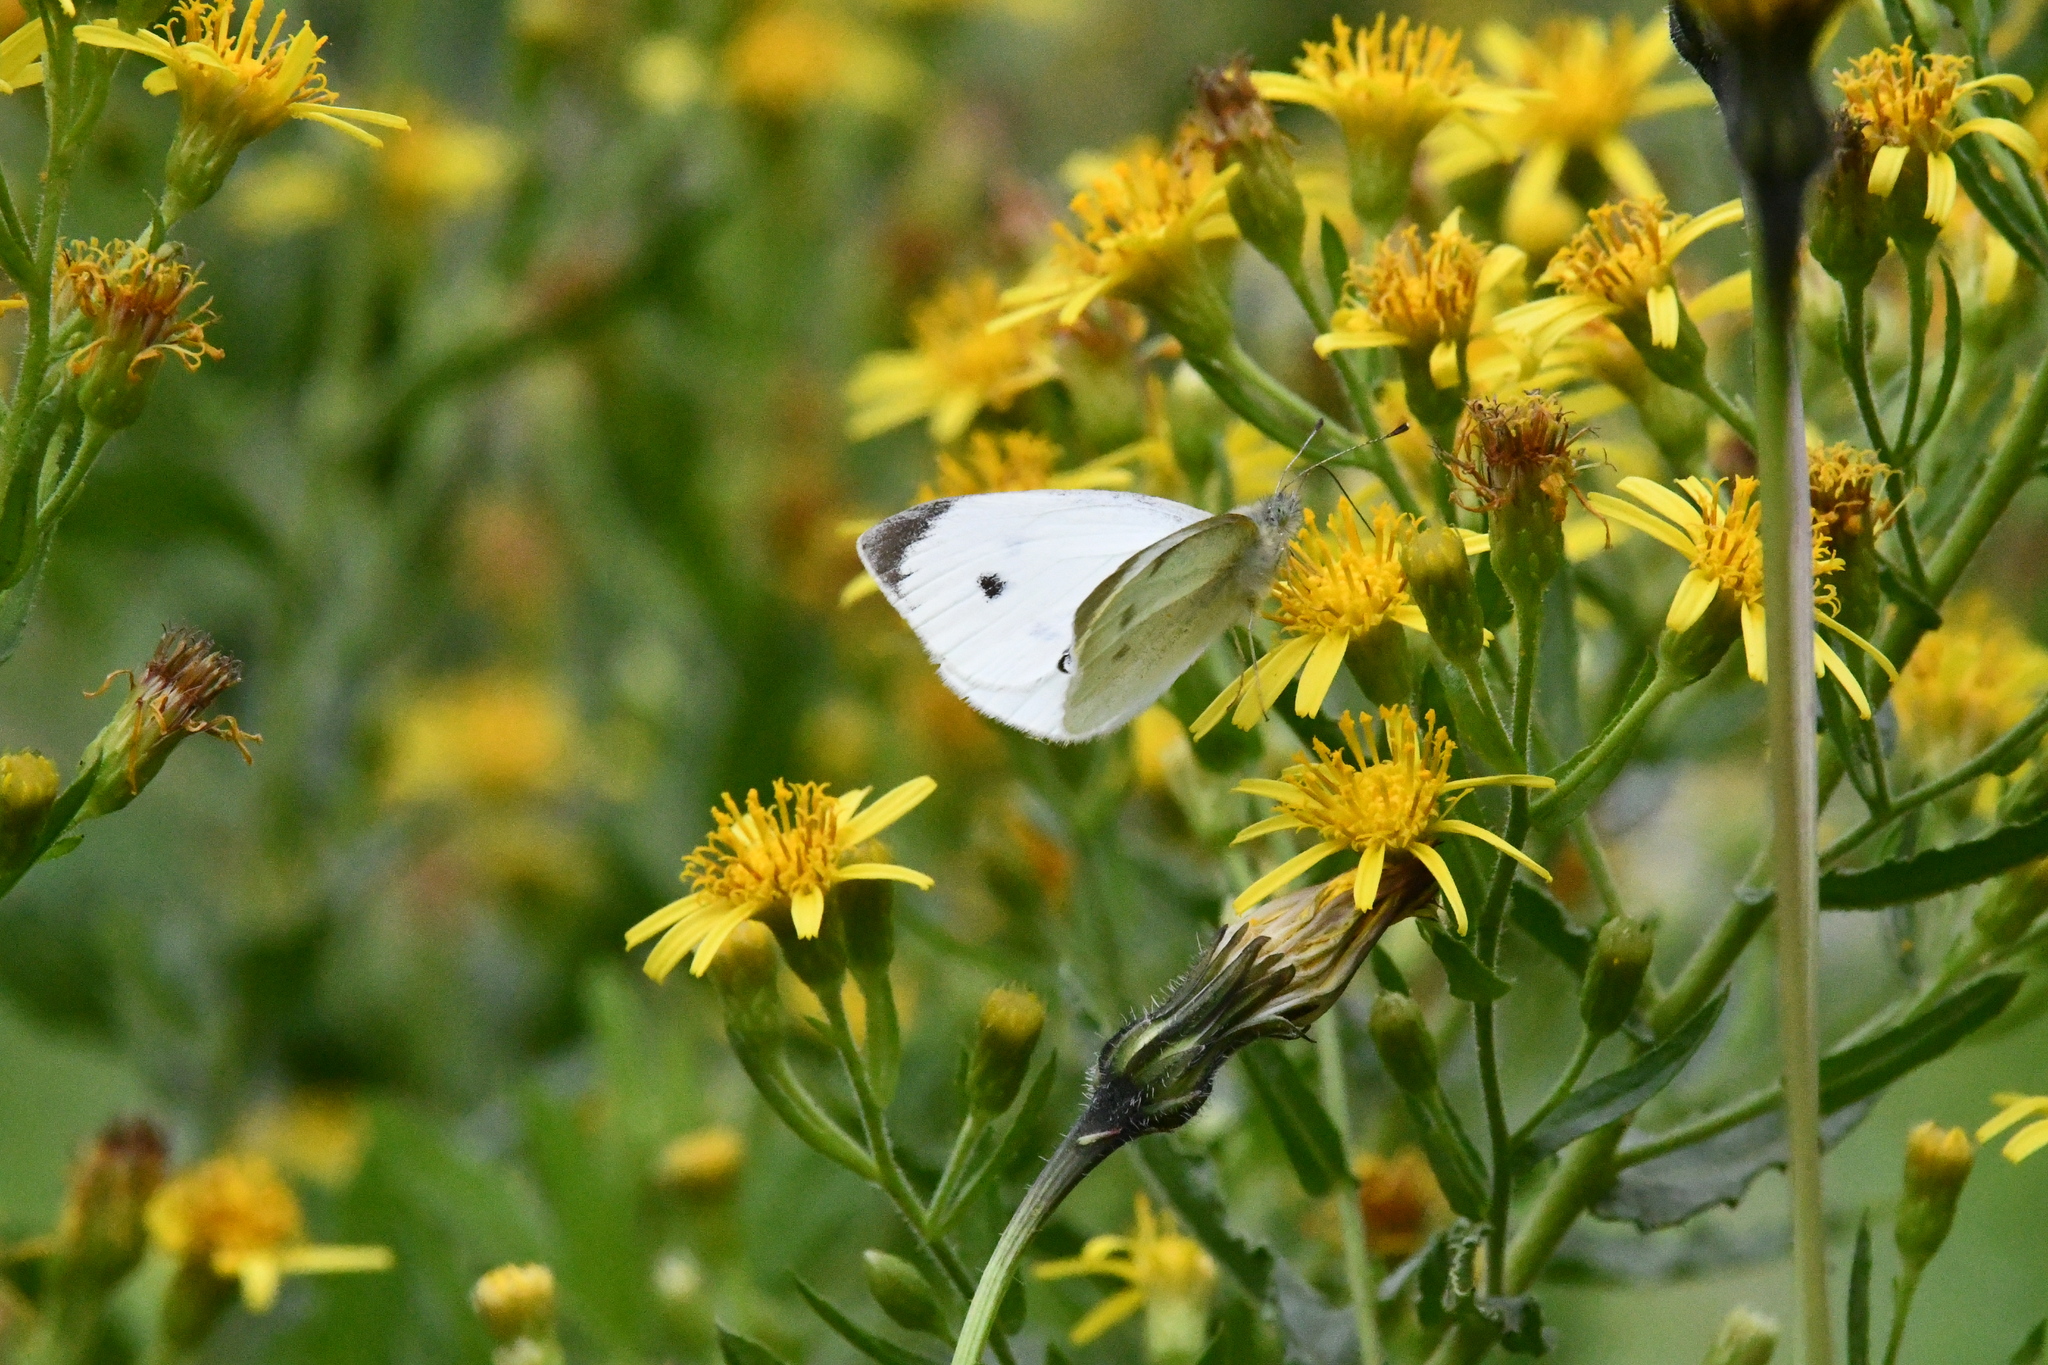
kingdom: Animalia
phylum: Arthropoda
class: Insecta
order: Lepidoptera
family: Pieridae
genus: Pieris
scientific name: Pieris mannii
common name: Southern small white
